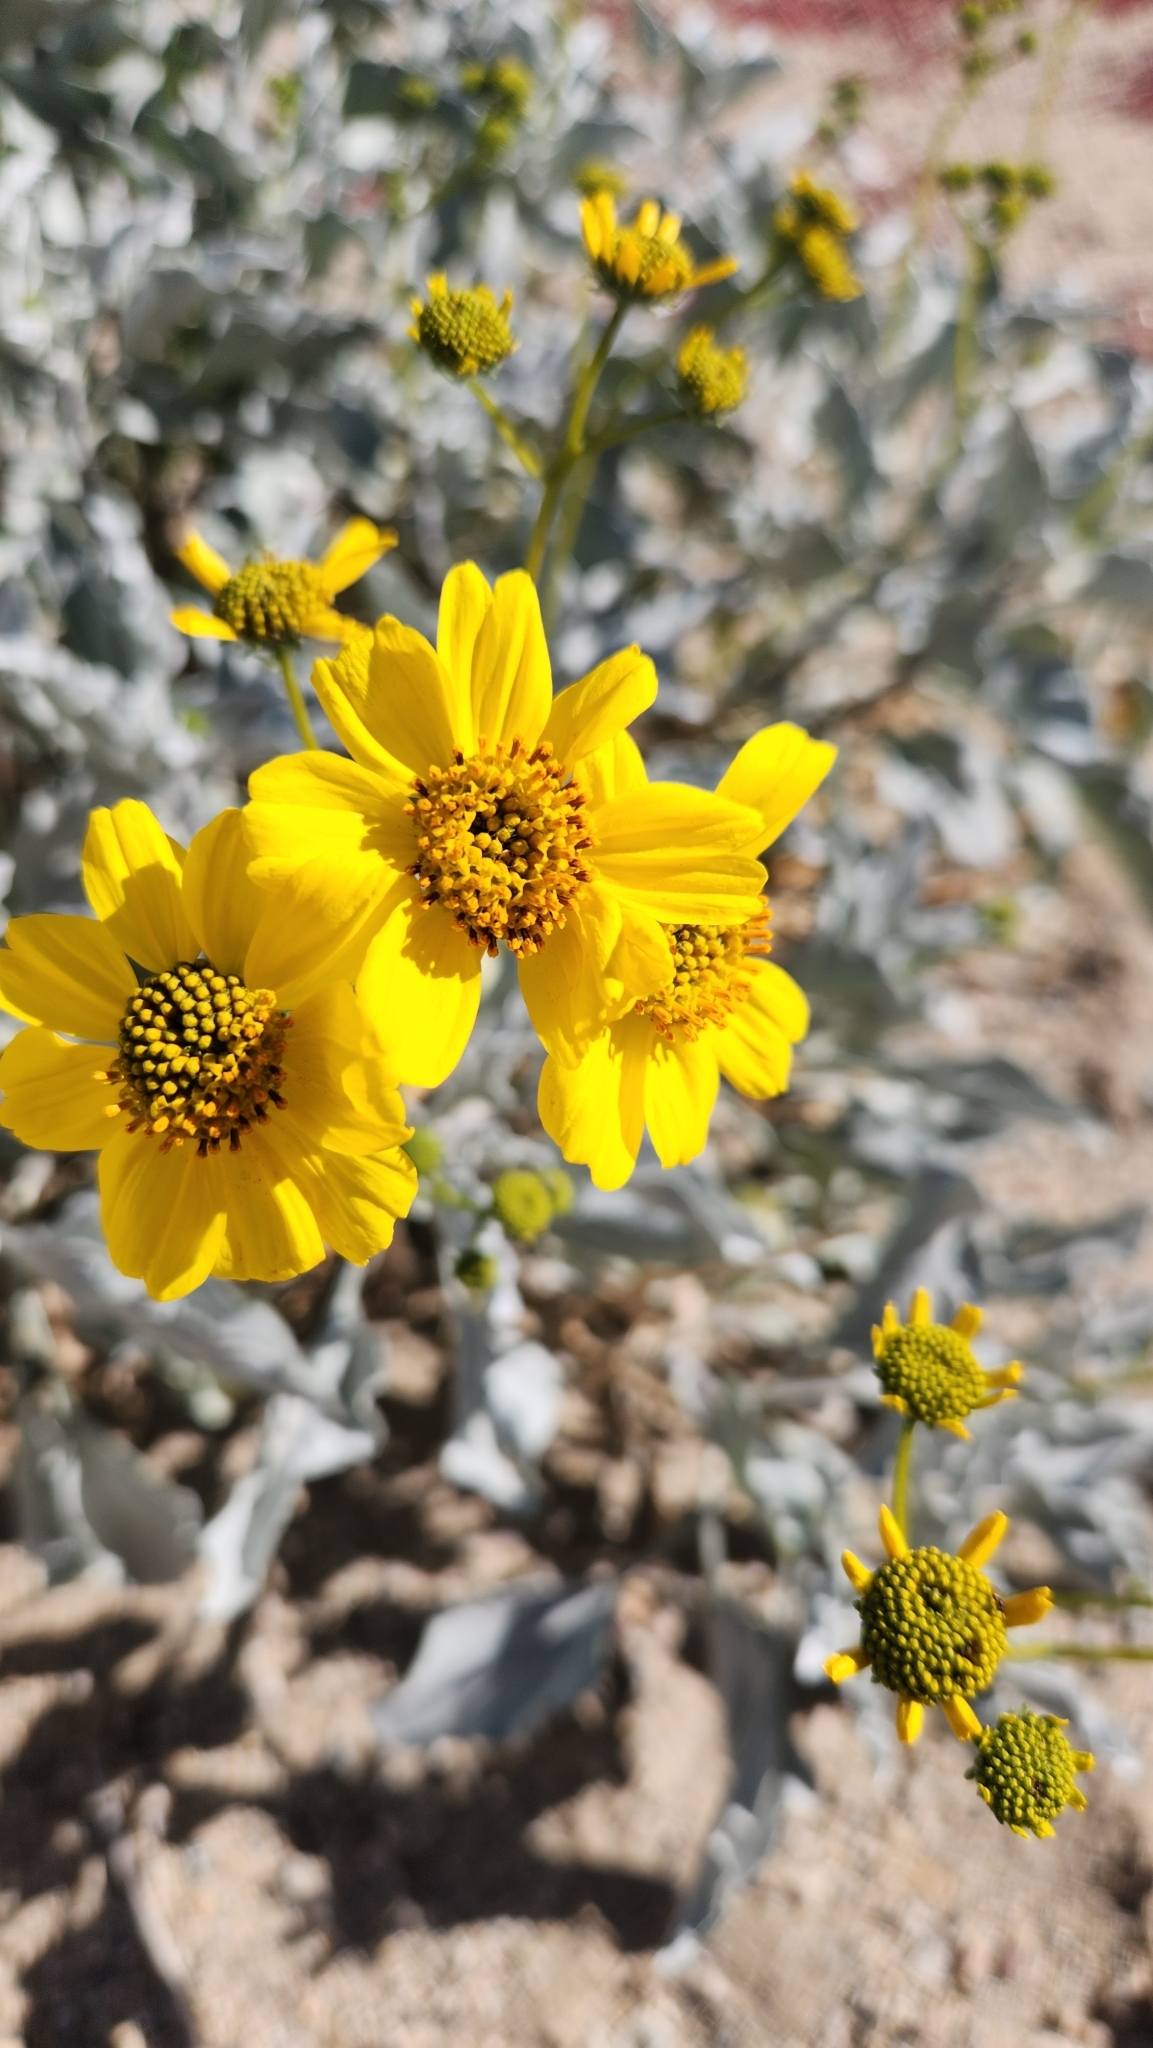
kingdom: Plantae
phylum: Tracheophyta
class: Magnoliopsida
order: Asterales
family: Asteraceae
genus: Encelia
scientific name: Encelia farinosa
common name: Brittlebush
